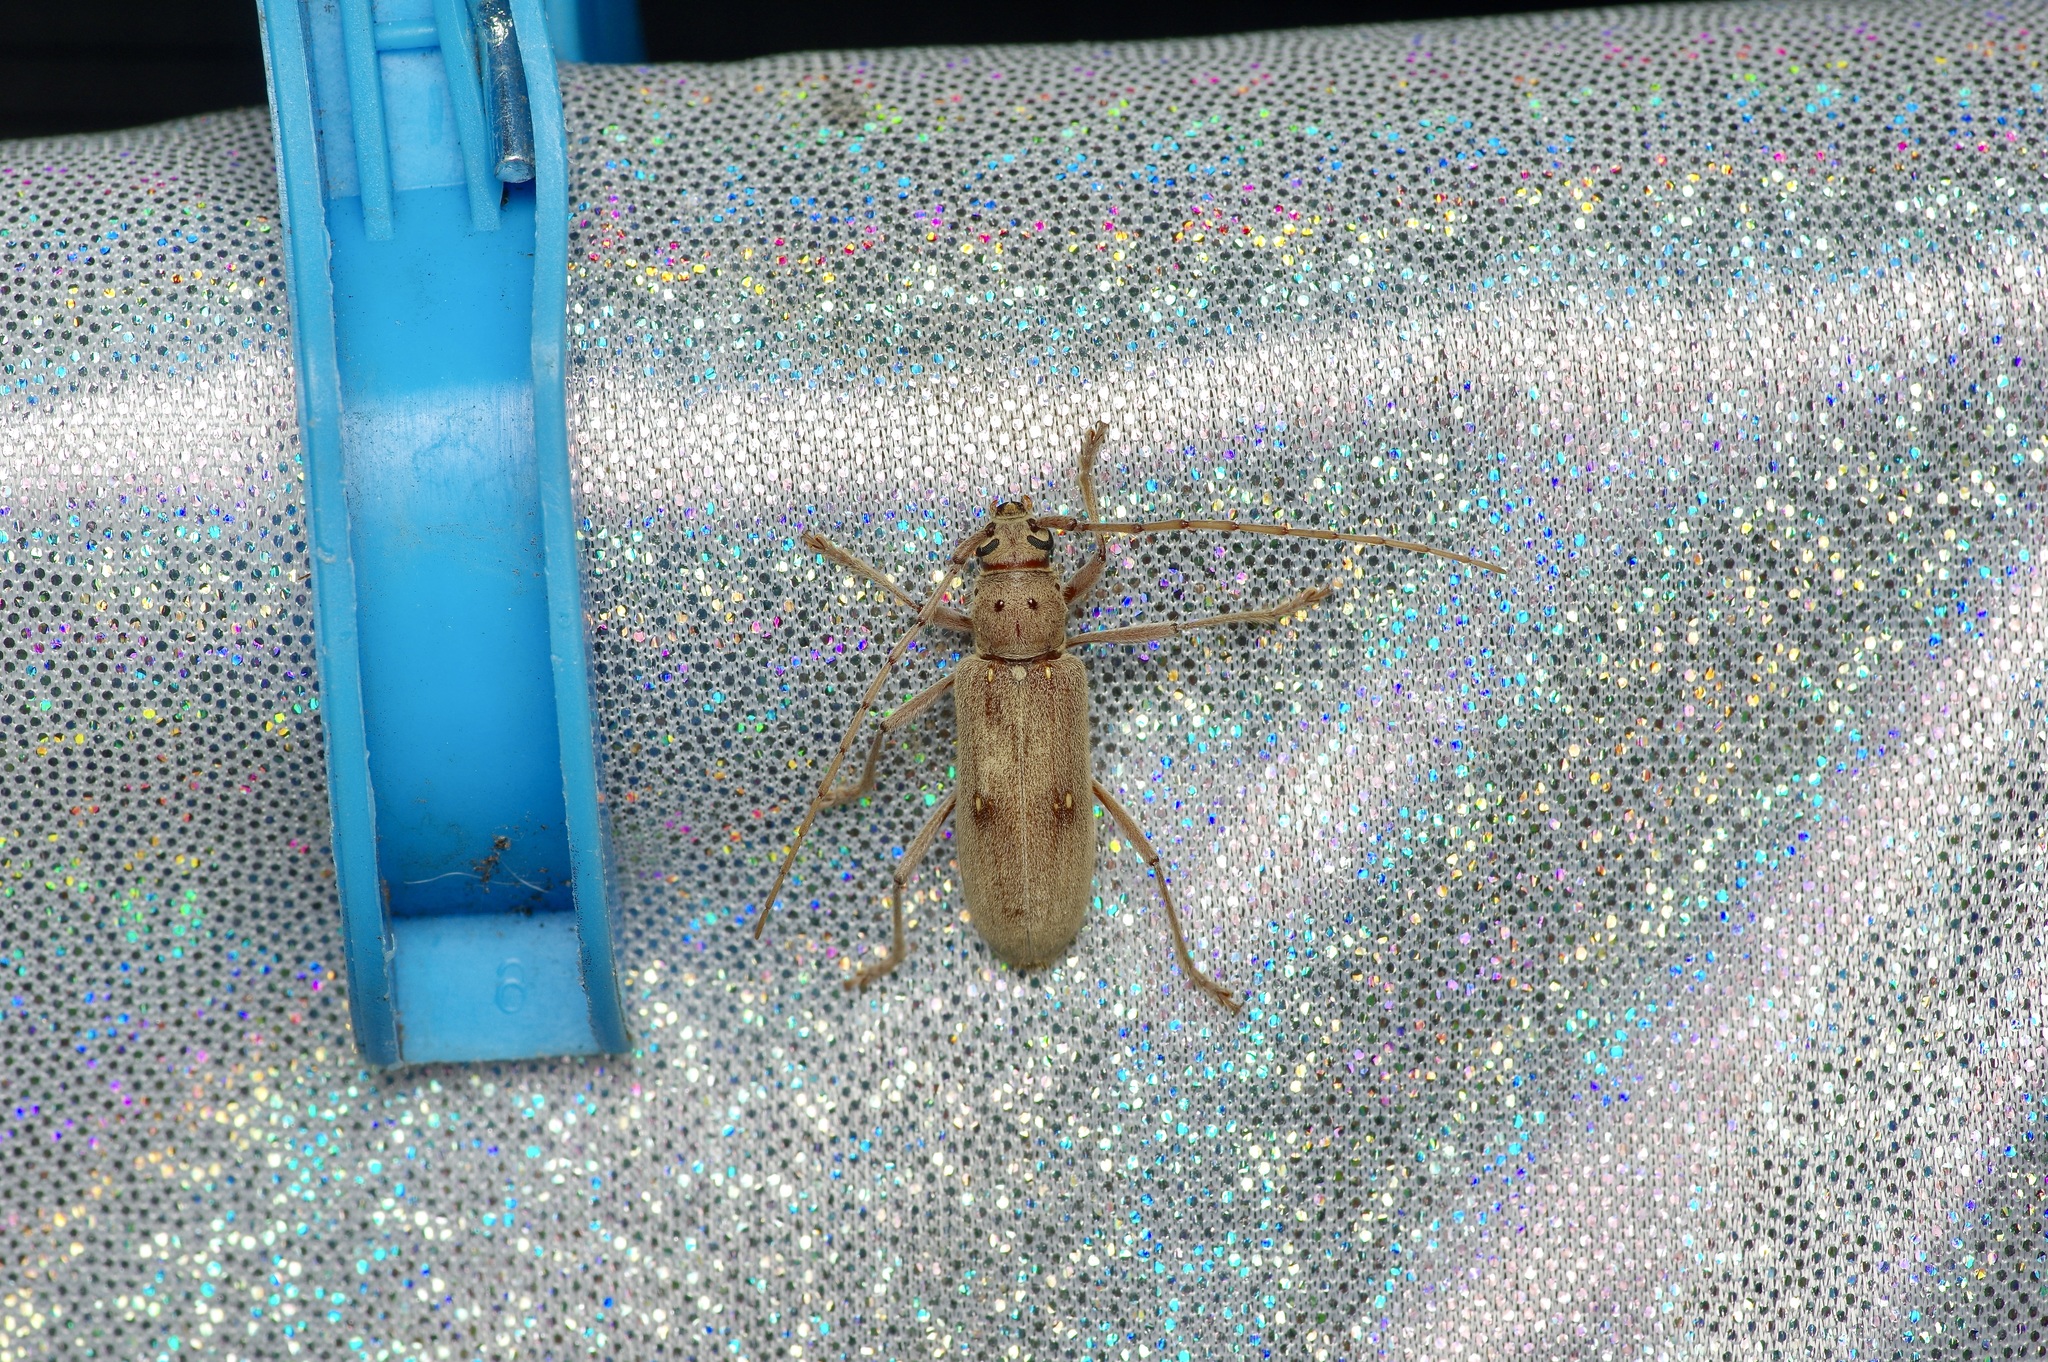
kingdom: Animalia
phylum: Arthropoda
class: Insecta
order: Coleoptera
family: Cerambycidae
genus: Eburia
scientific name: Eburia mutica
